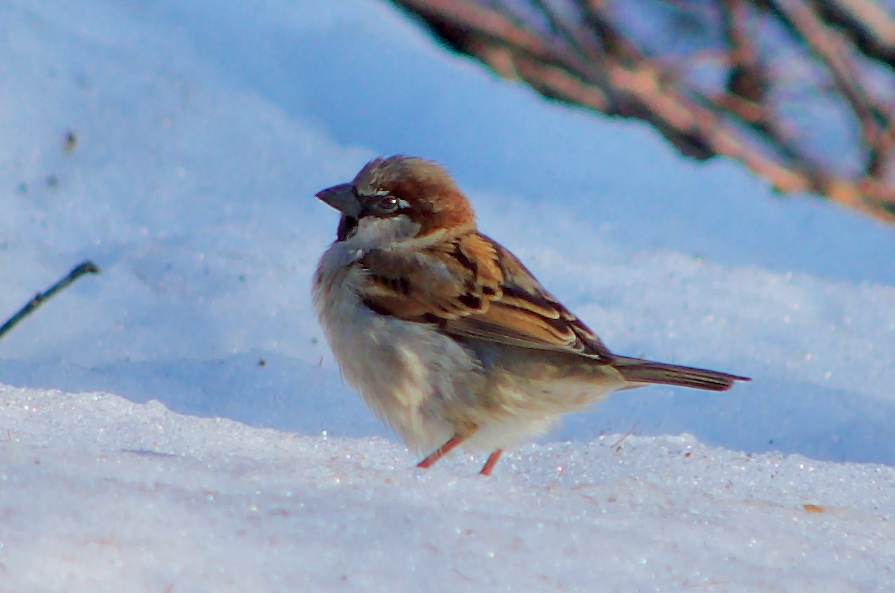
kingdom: Animalia
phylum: Chordata
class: Aves
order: Passeriformes
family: Passeridae
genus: Passer
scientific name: Passer domesticus
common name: House sparrow
